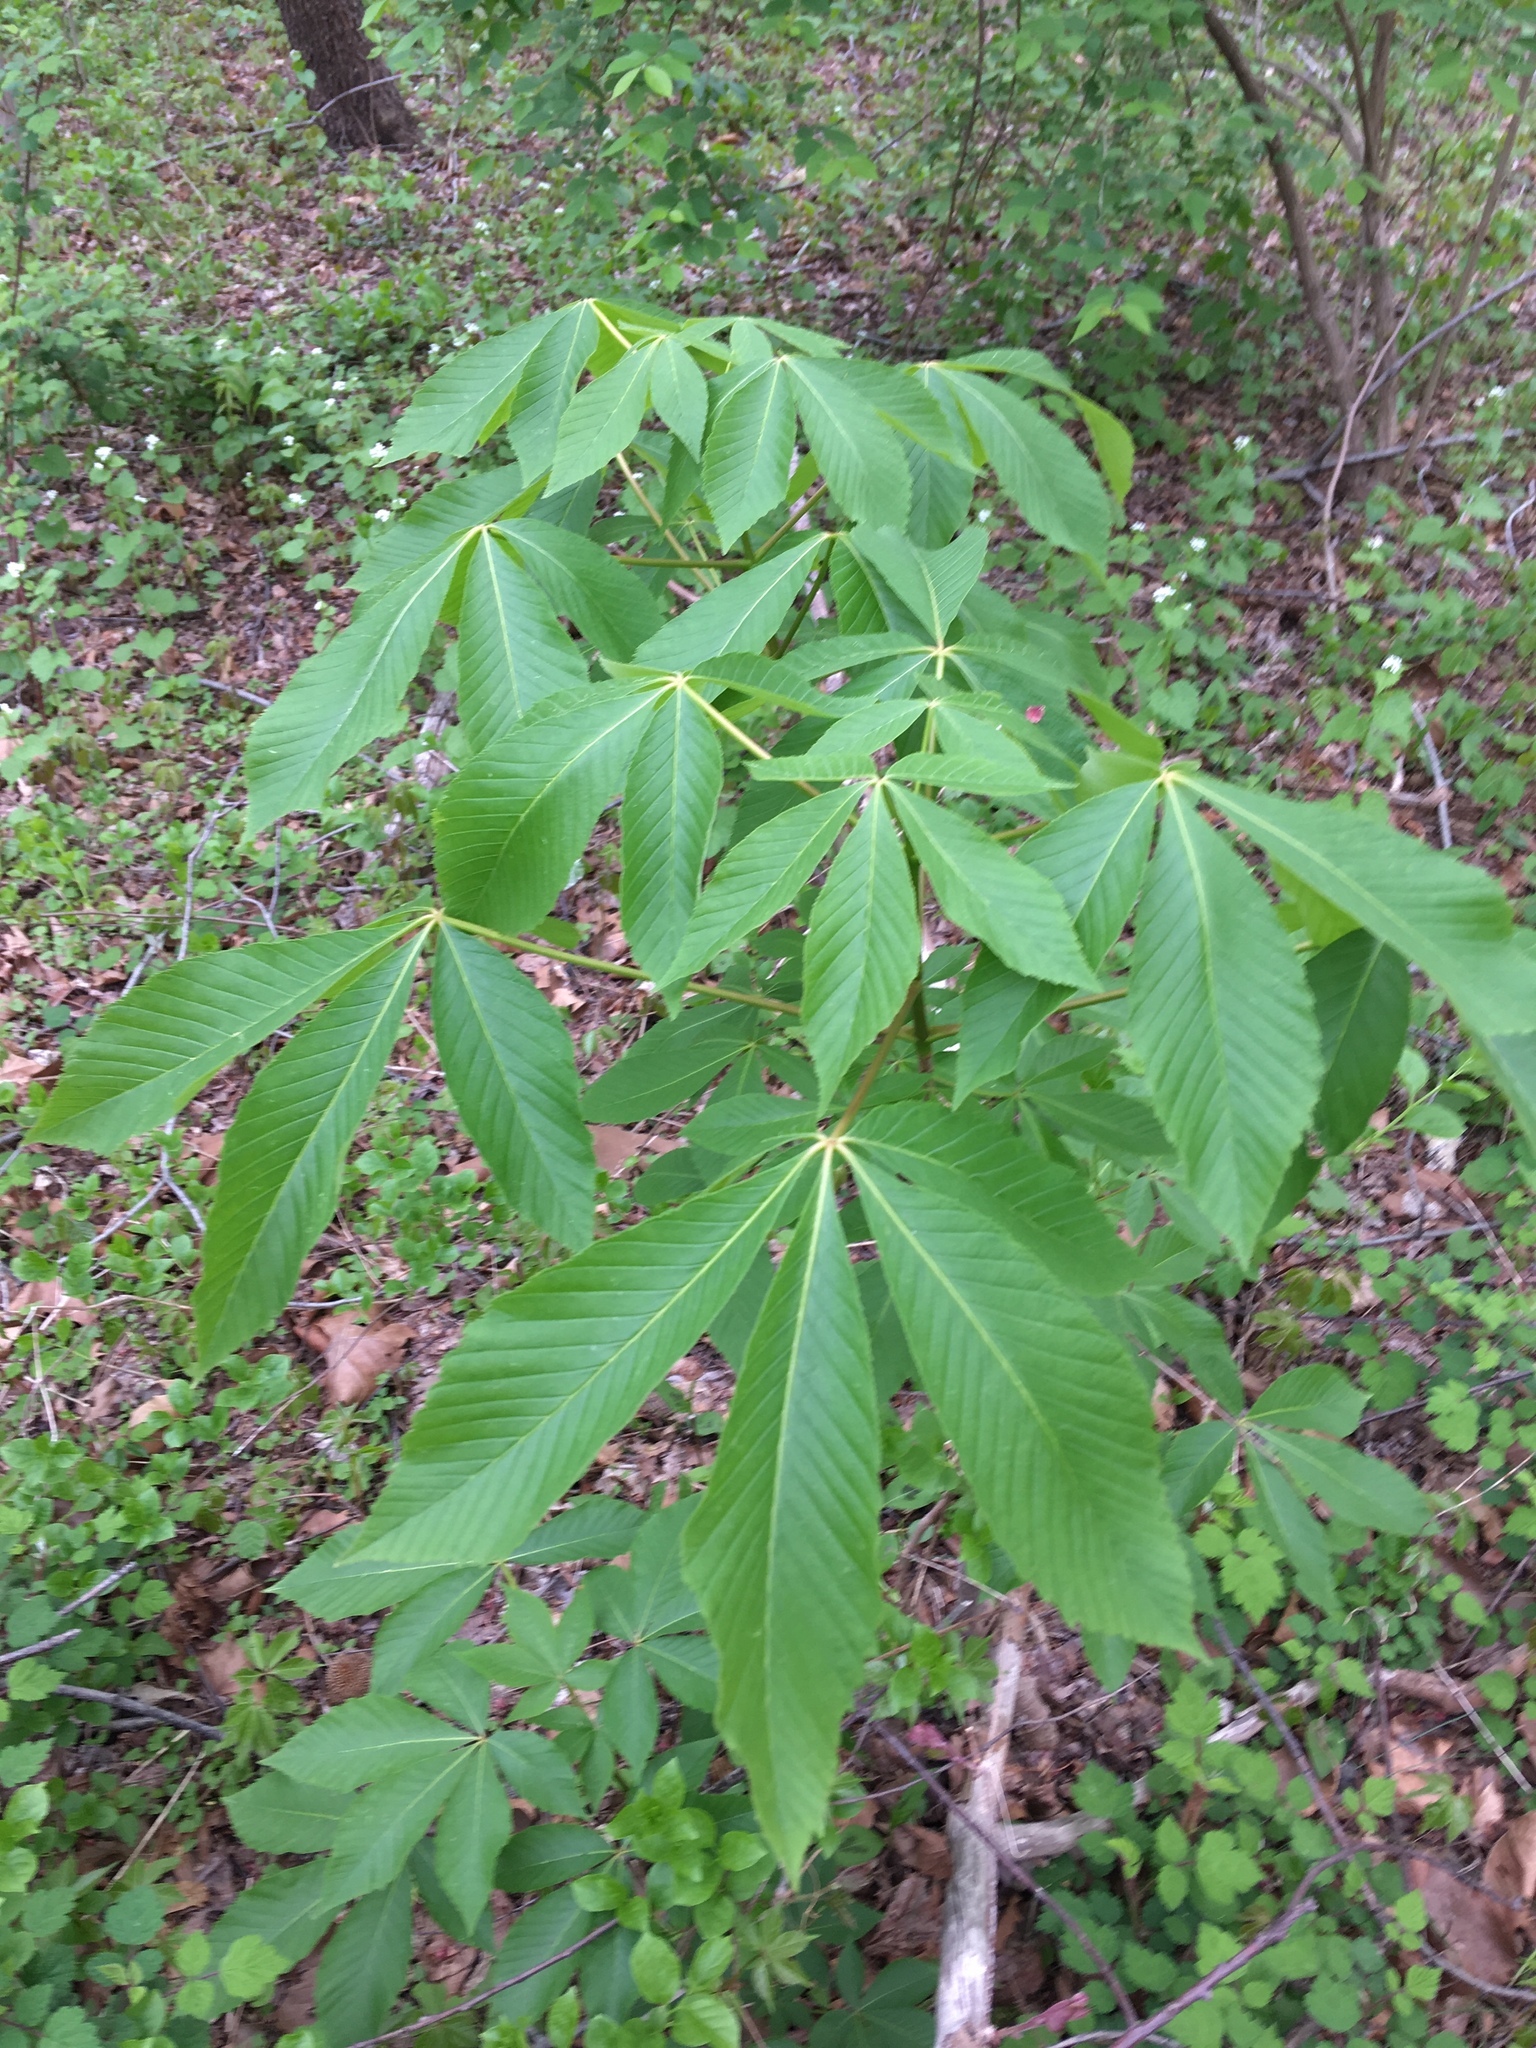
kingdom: Plantae
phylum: Tracheophyta
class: Magnoliopsida
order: Sapindales
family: Sapindaceae
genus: Aesculus
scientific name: Aesculus glabra
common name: Ohio buckeye
